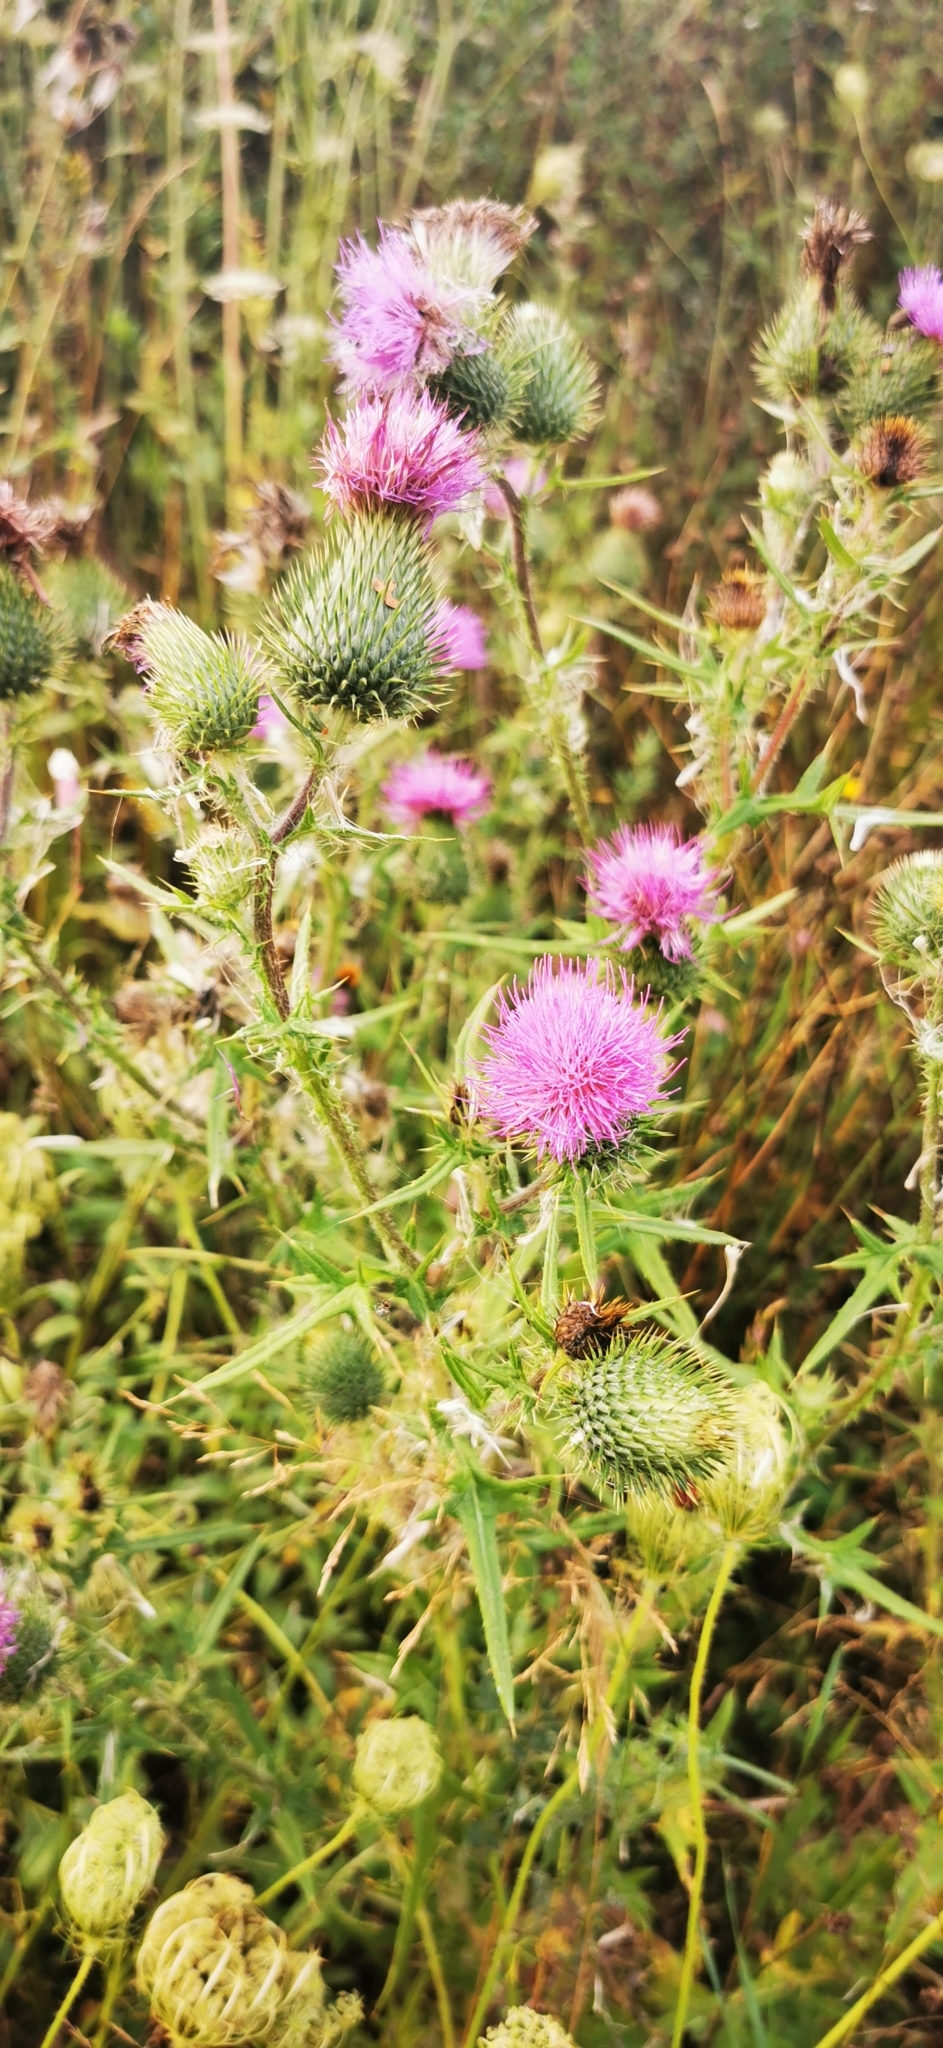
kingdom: Plantae
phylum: Tracheophyta
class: Magnoliopsida
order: Asterales
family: Asteraceae
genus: Cirsium
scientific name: Cirsium vulgare
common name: Bull thistle
